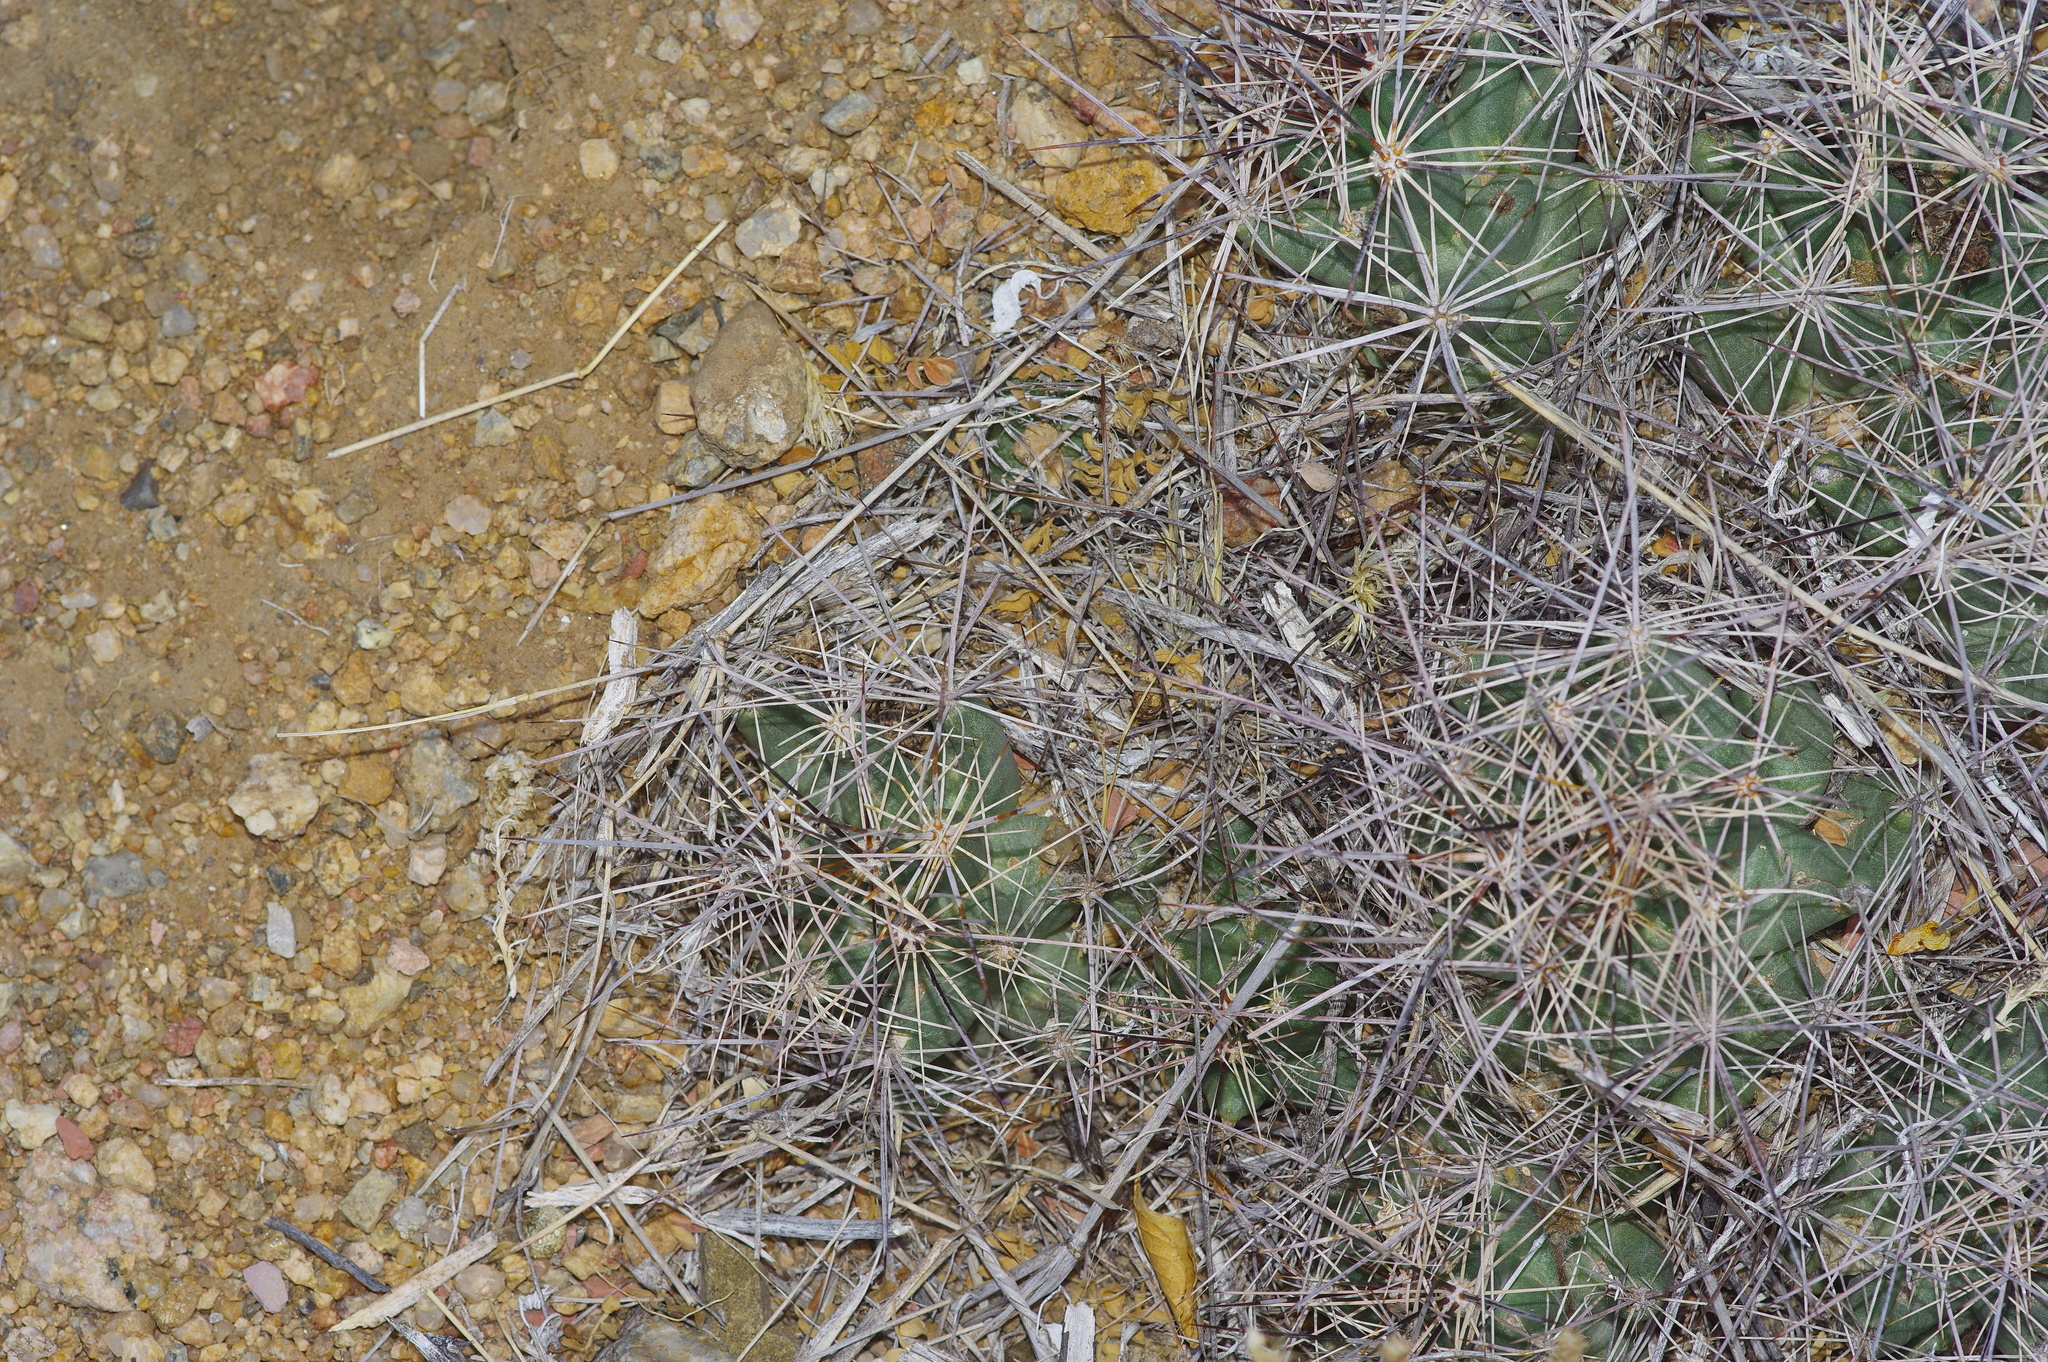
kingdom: Plantae
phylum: Tracheophyta
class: Magnoliopsida
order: Caryophyllales
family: Cactaceae
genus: Coryphantha
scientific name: Coryphantha macromeris
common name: Nipple beehive cactus
